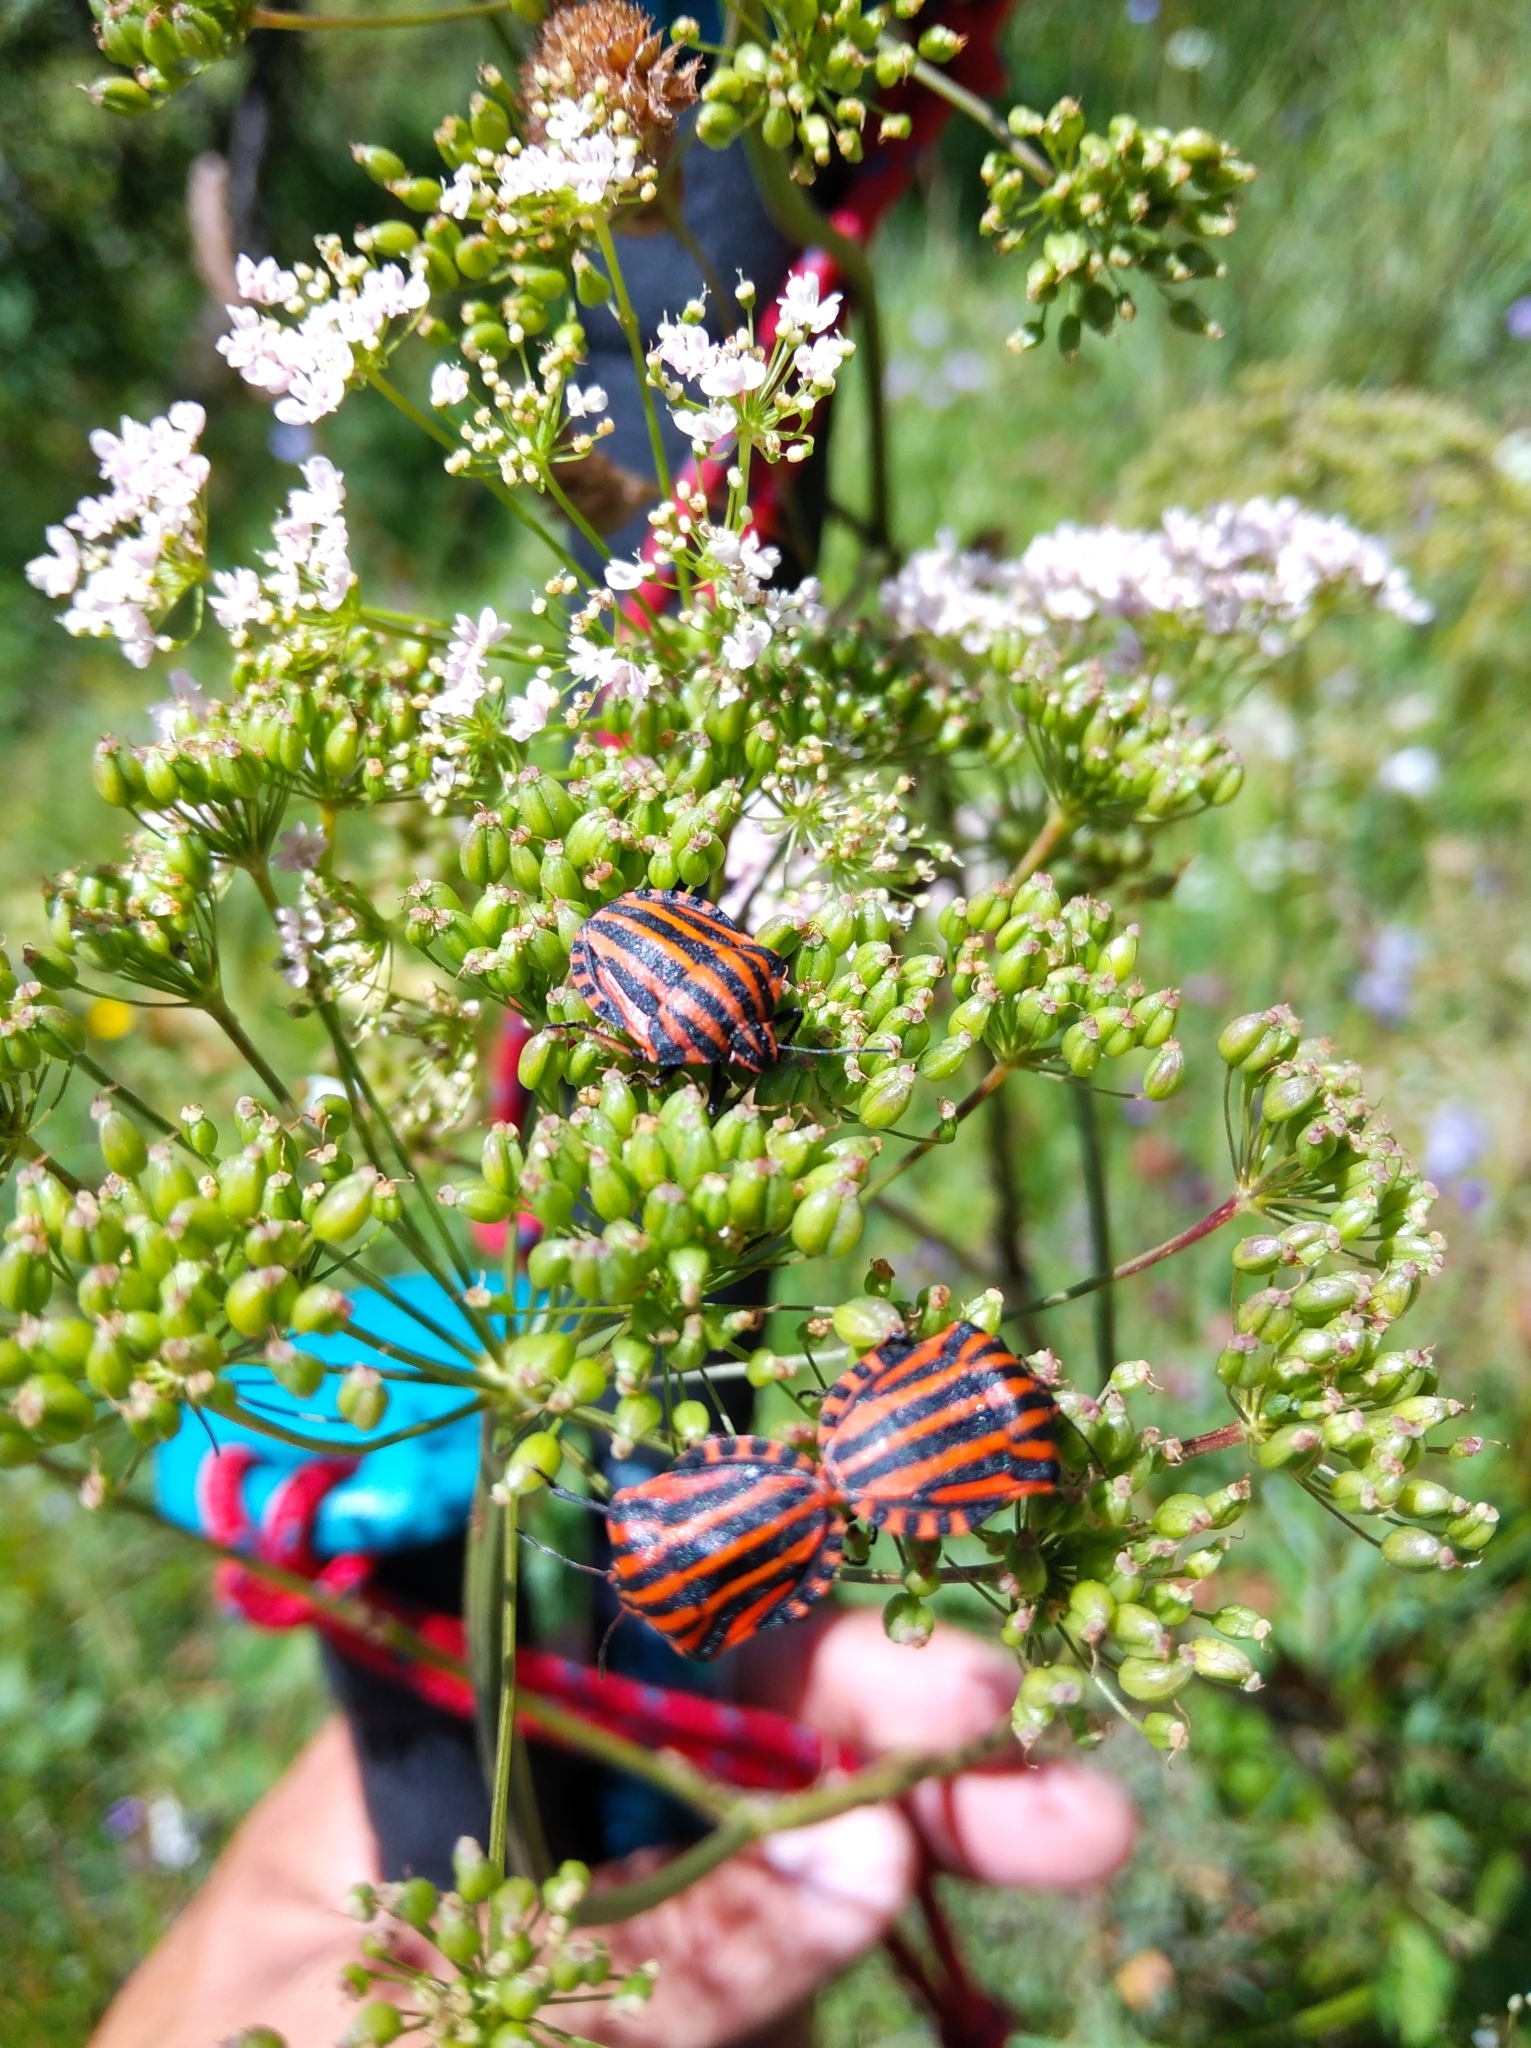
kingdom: Animalia
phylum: Arthropoda
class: Insecta
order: Hemiptera
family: Pentatomidae
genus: Graphosoma
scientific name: Graphosoma italicum
